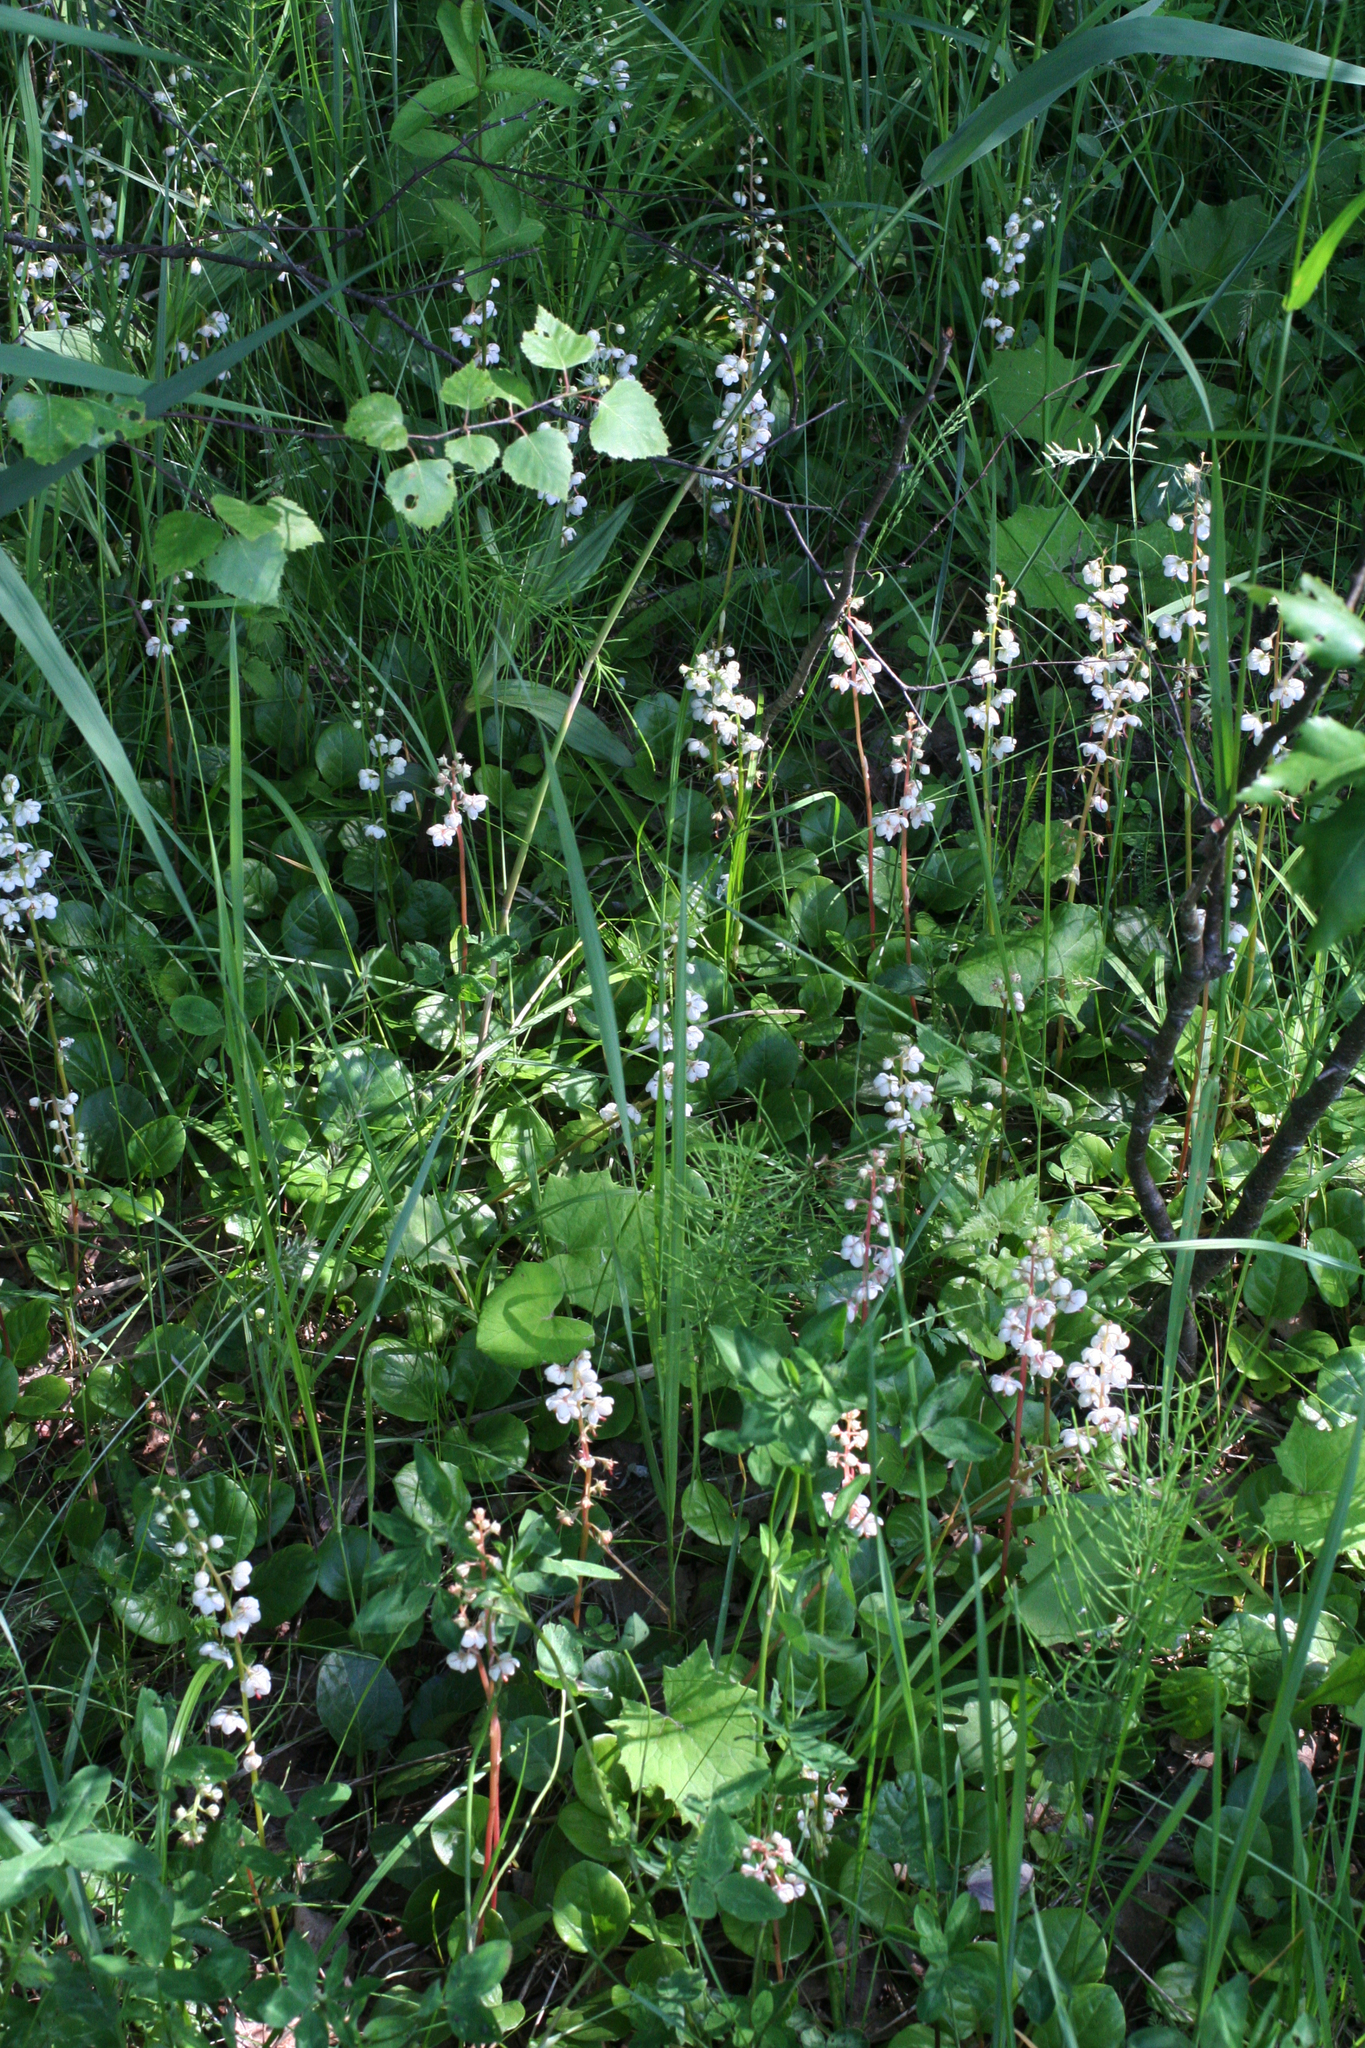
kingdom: Plantae
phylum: Tracheophyta
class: Magnoliopsida
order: Ericales
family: Ericaceae
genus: Pyrola
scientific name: Pyrola rotundifolia
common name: Round-leaved wintergreen
